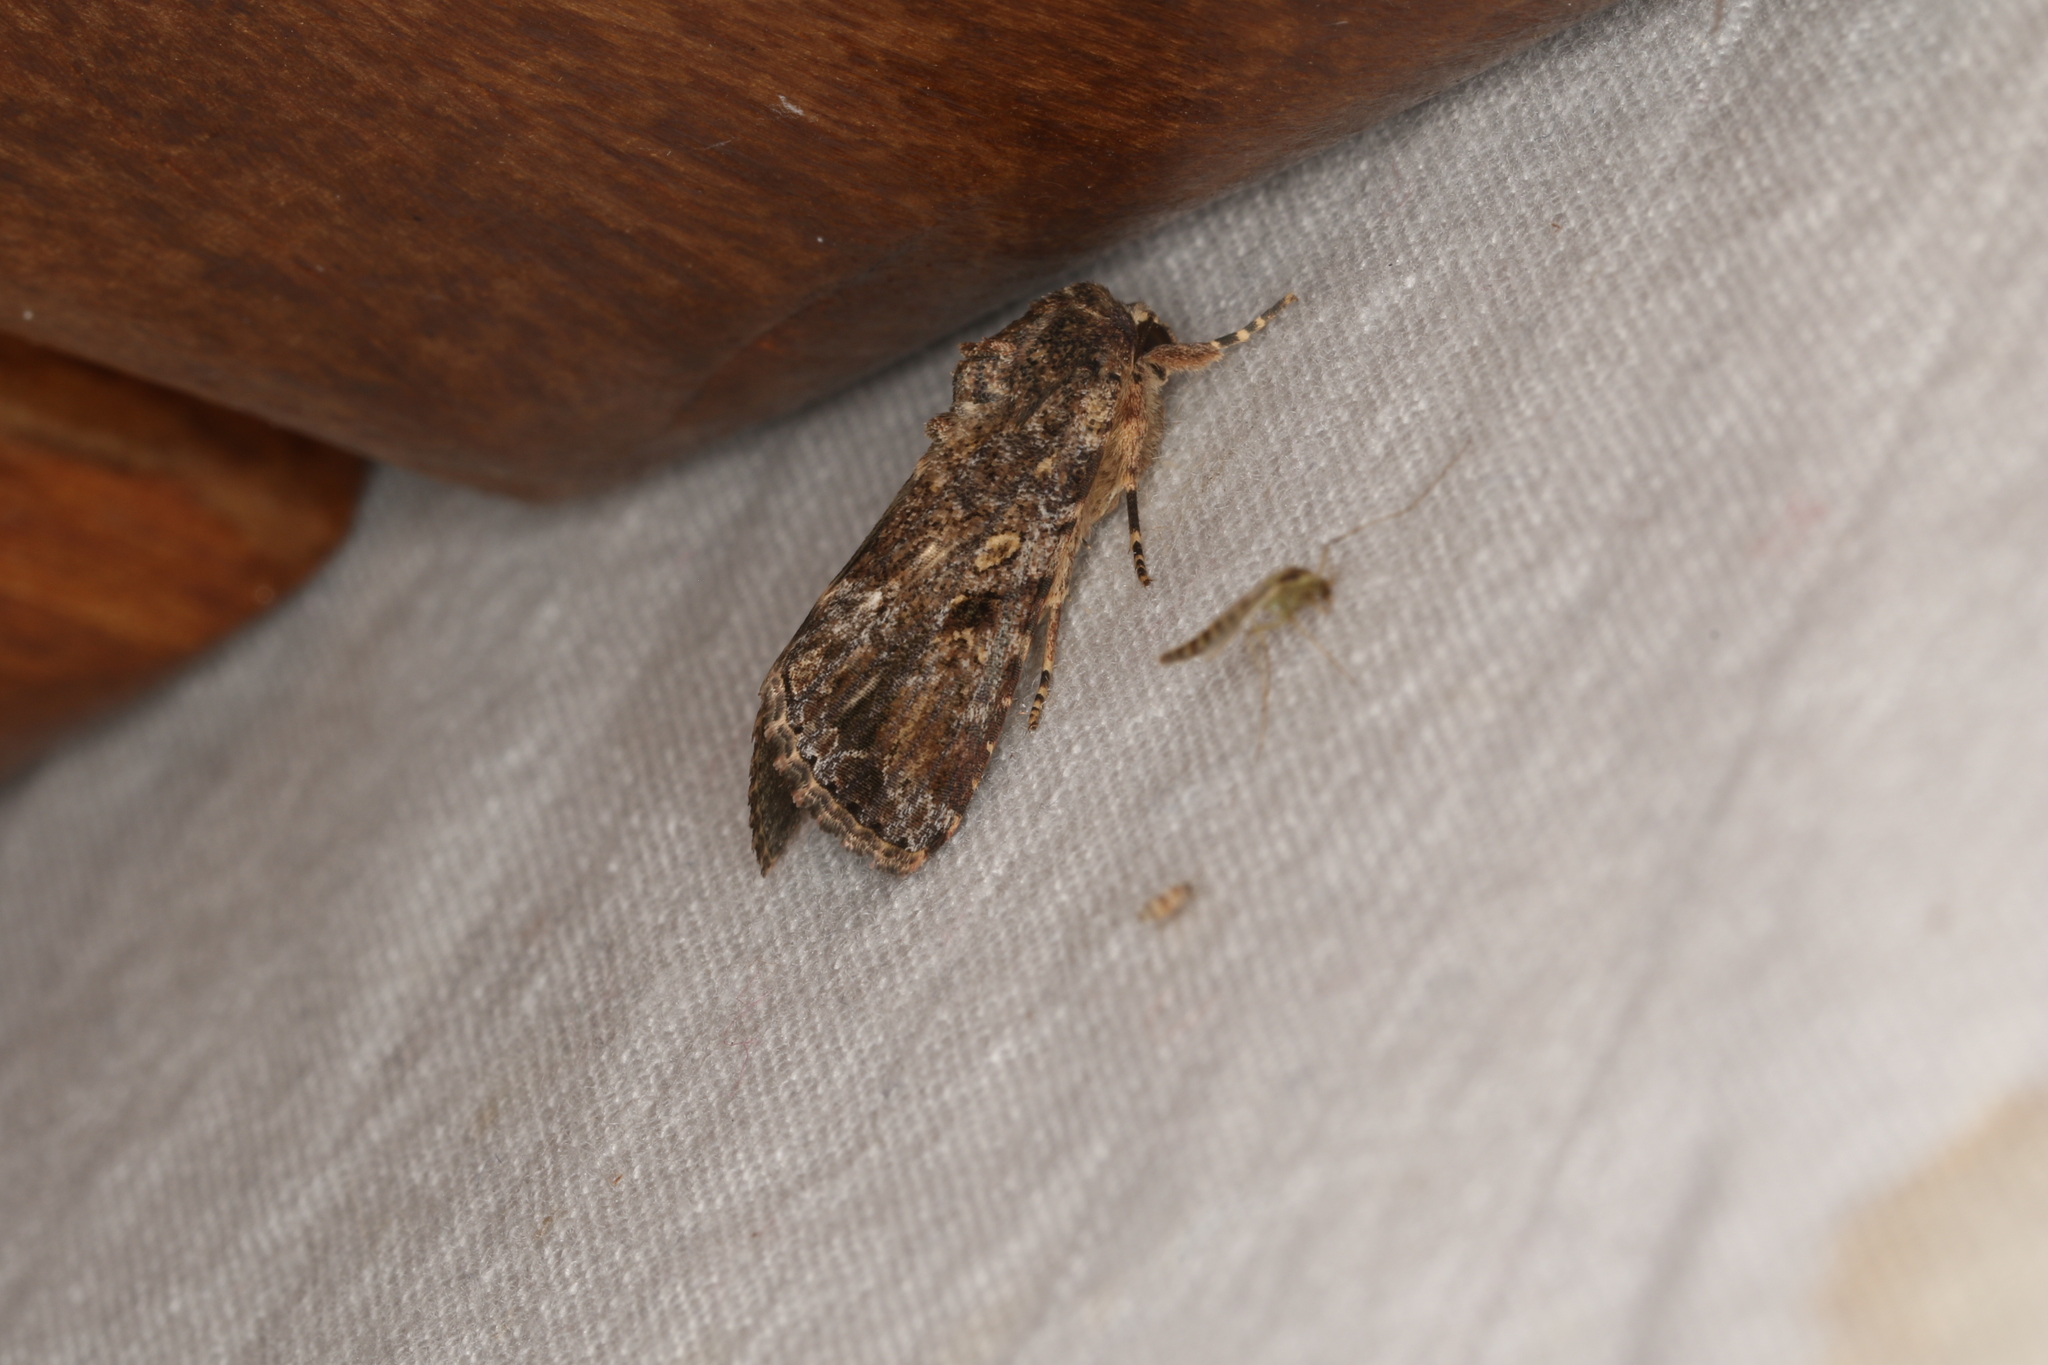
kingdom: Animalia
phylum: Arthropoda
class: Insecta
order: Lepidoptera
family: Noctuidae
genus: Spodoptera
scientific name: Spodoptera mauritia
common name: Lawn armyworm
